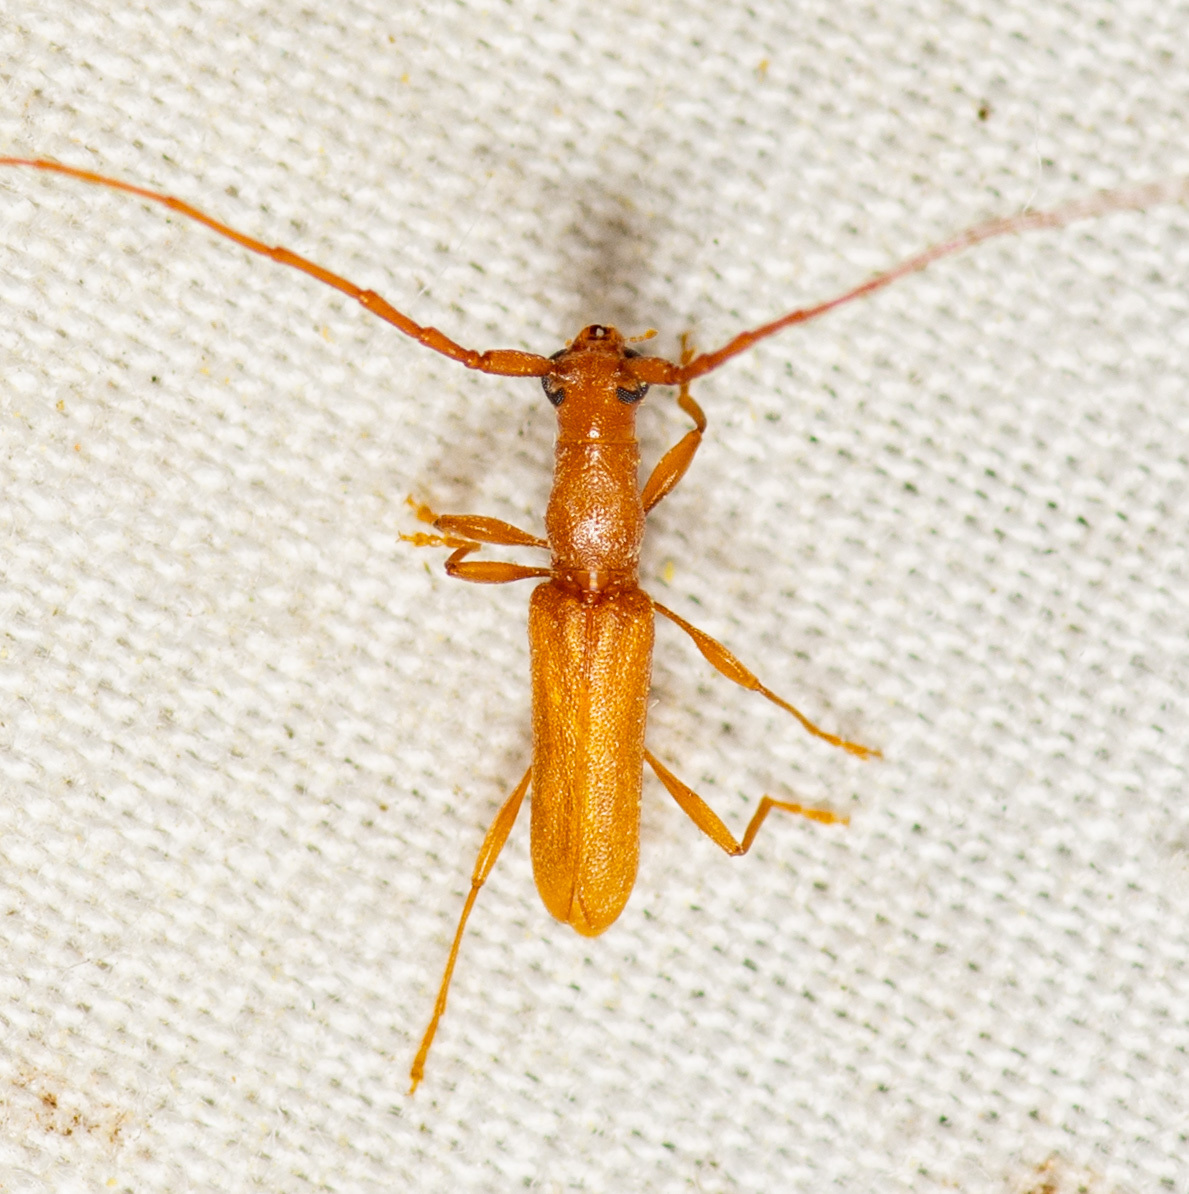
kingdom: Animalia
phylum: Arthropoda
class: Insecta
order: Coleoptera
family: Cerambycidae
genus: Hypexilis
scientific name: Hypexilis pallida
